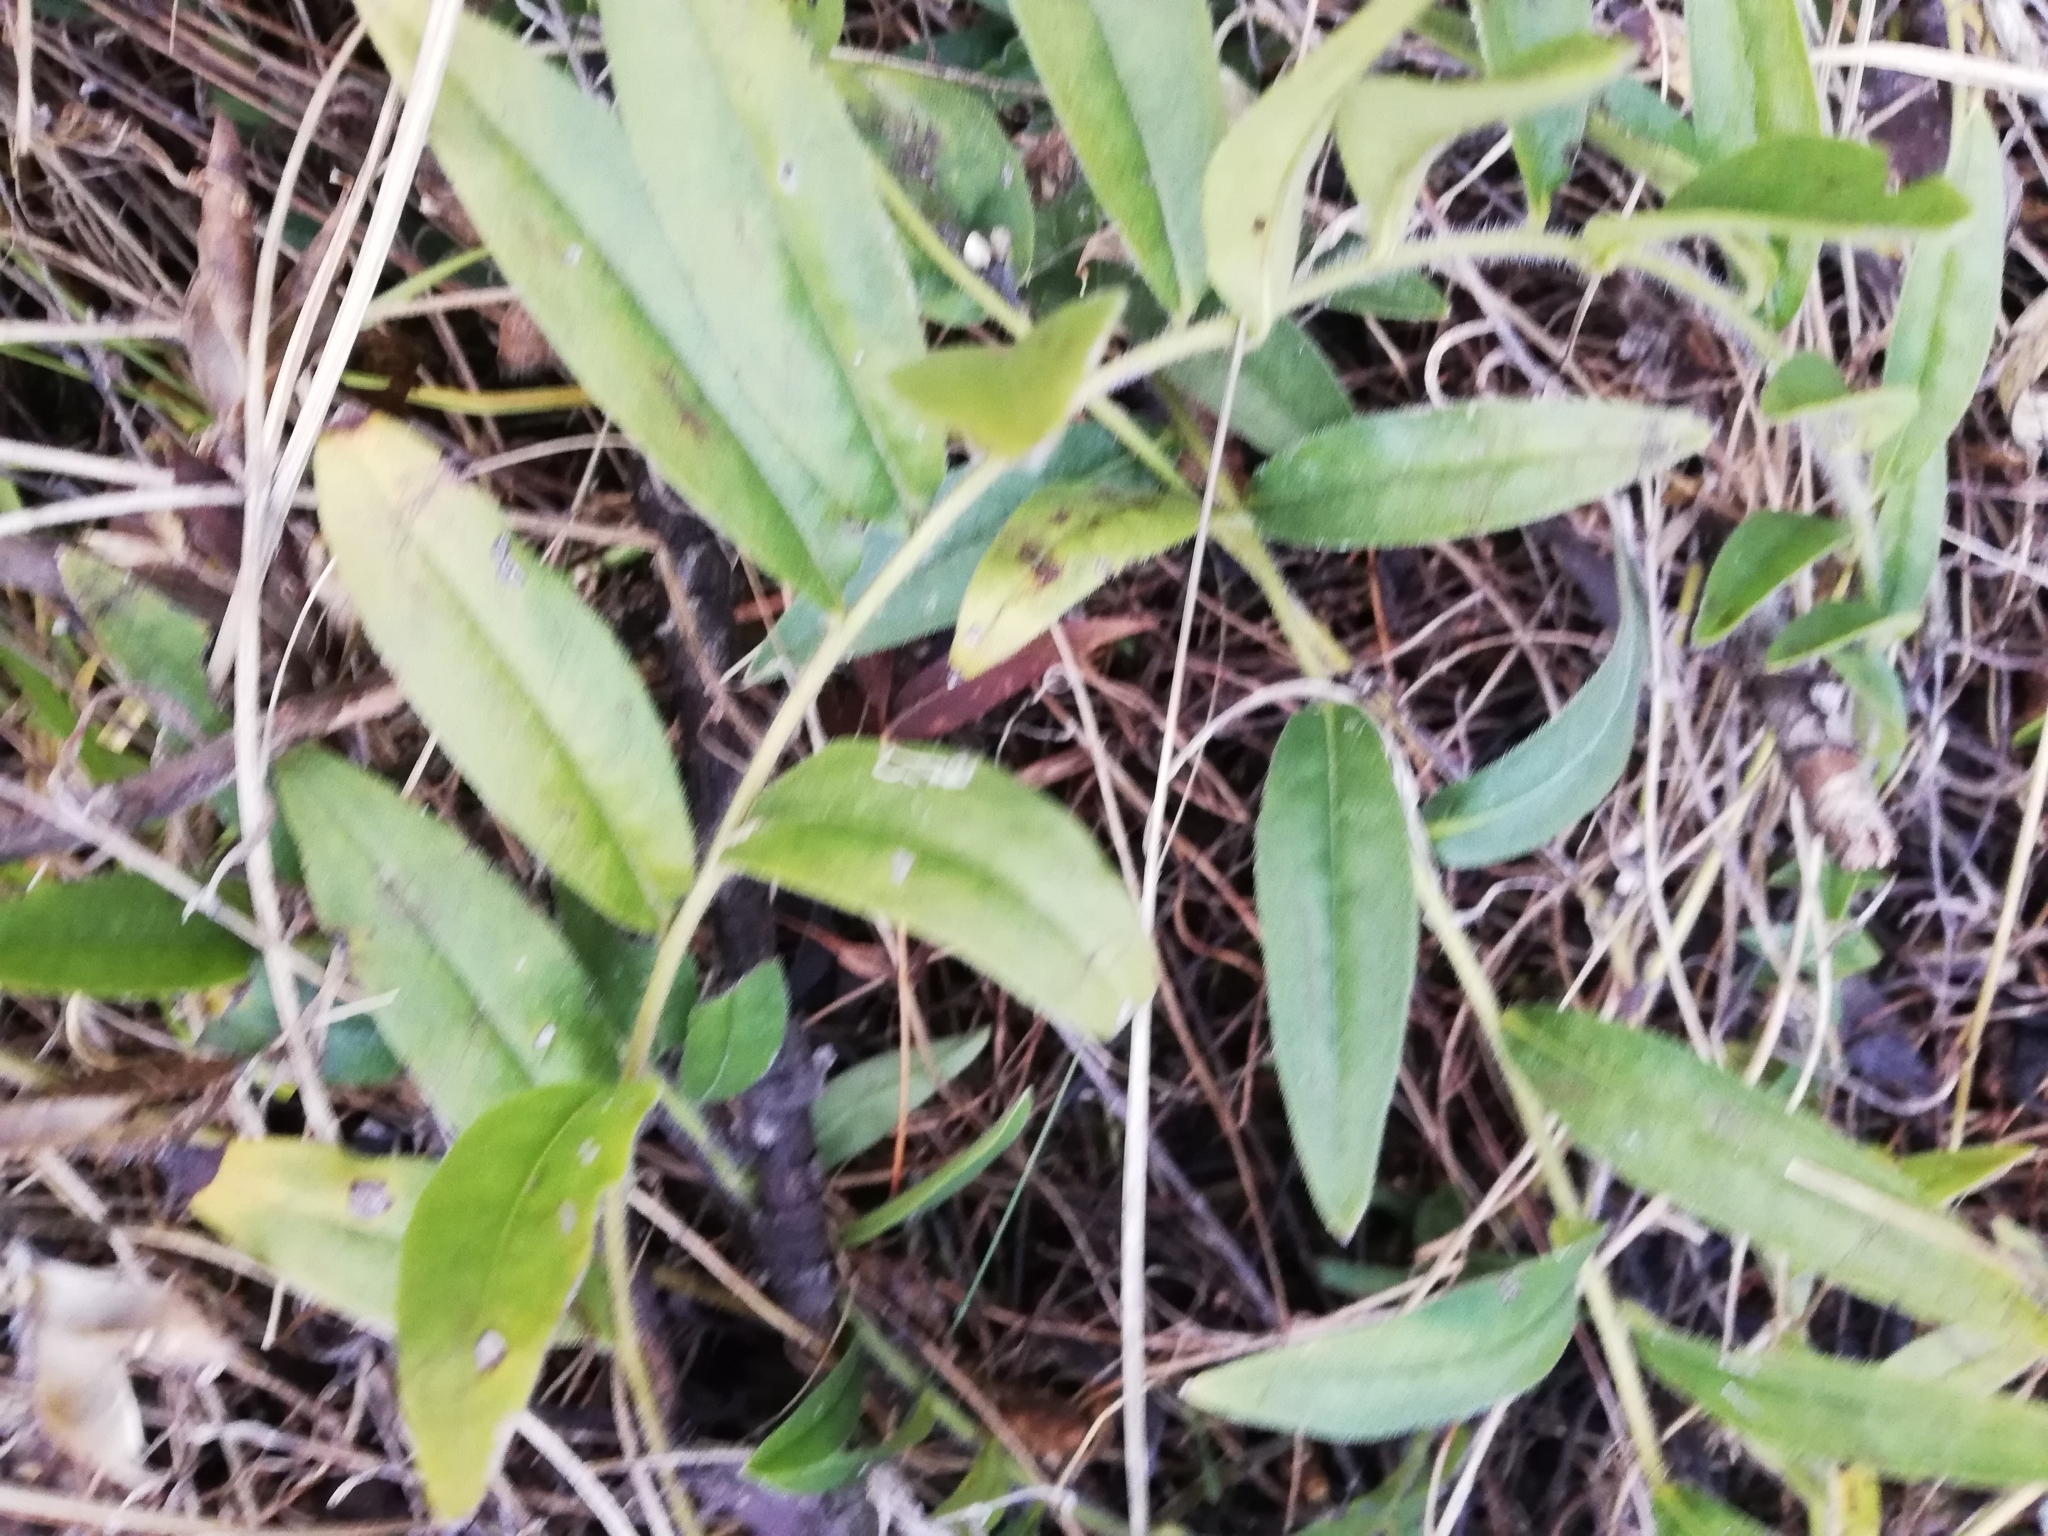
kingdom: Plantae
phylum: Tracheophyta
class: Magnoliopsida
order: Boraginales
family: Boraginaceae
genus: Aegonychon
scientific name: Aegonychon purpurocaeruleum
